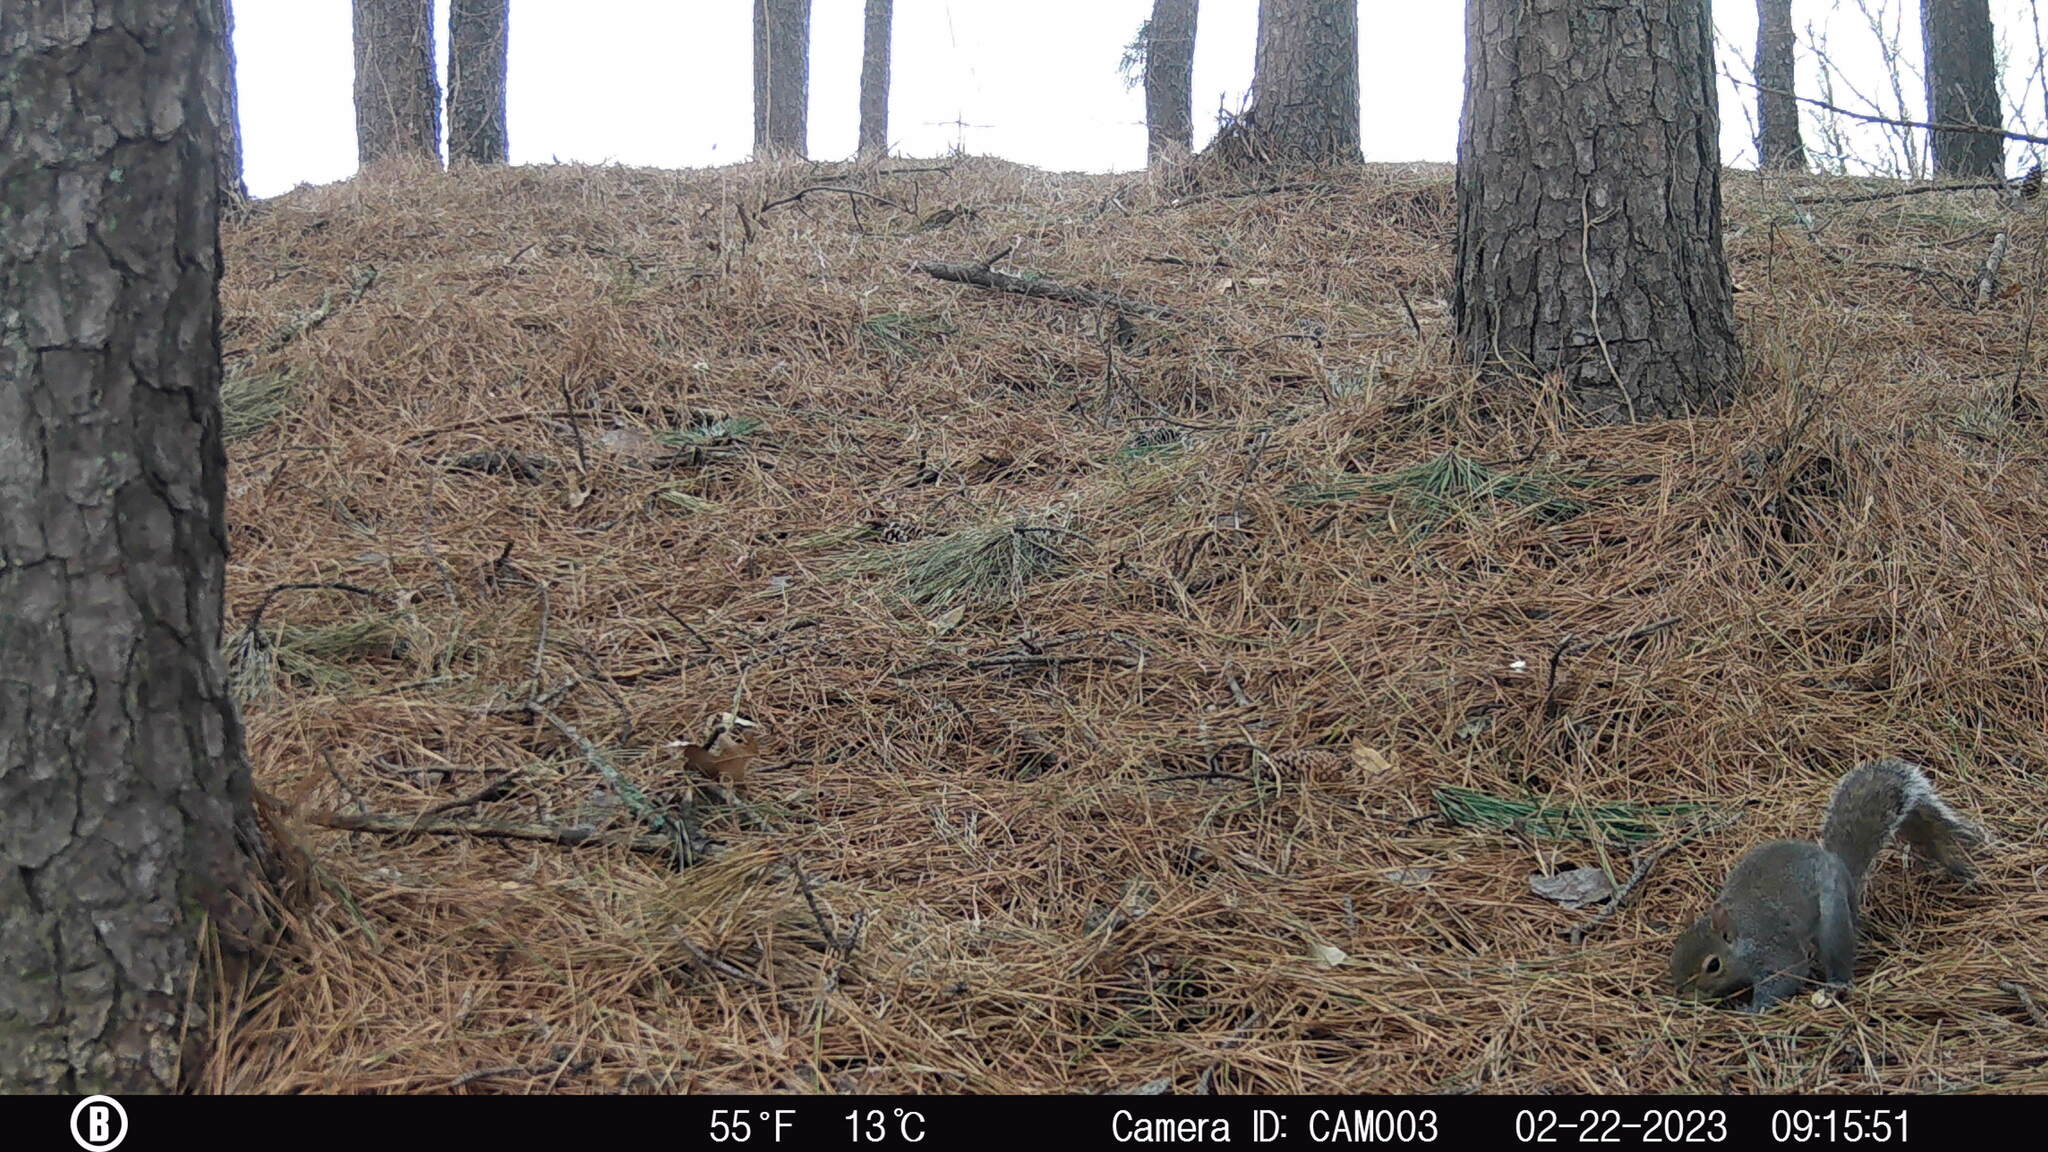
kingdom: Animalia
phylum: Chordata
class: Mammalia
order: Rodentia
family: Sciuridae
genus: Sciurus
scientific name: Sciurus carolinensis
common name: Eastern gray squirrel
